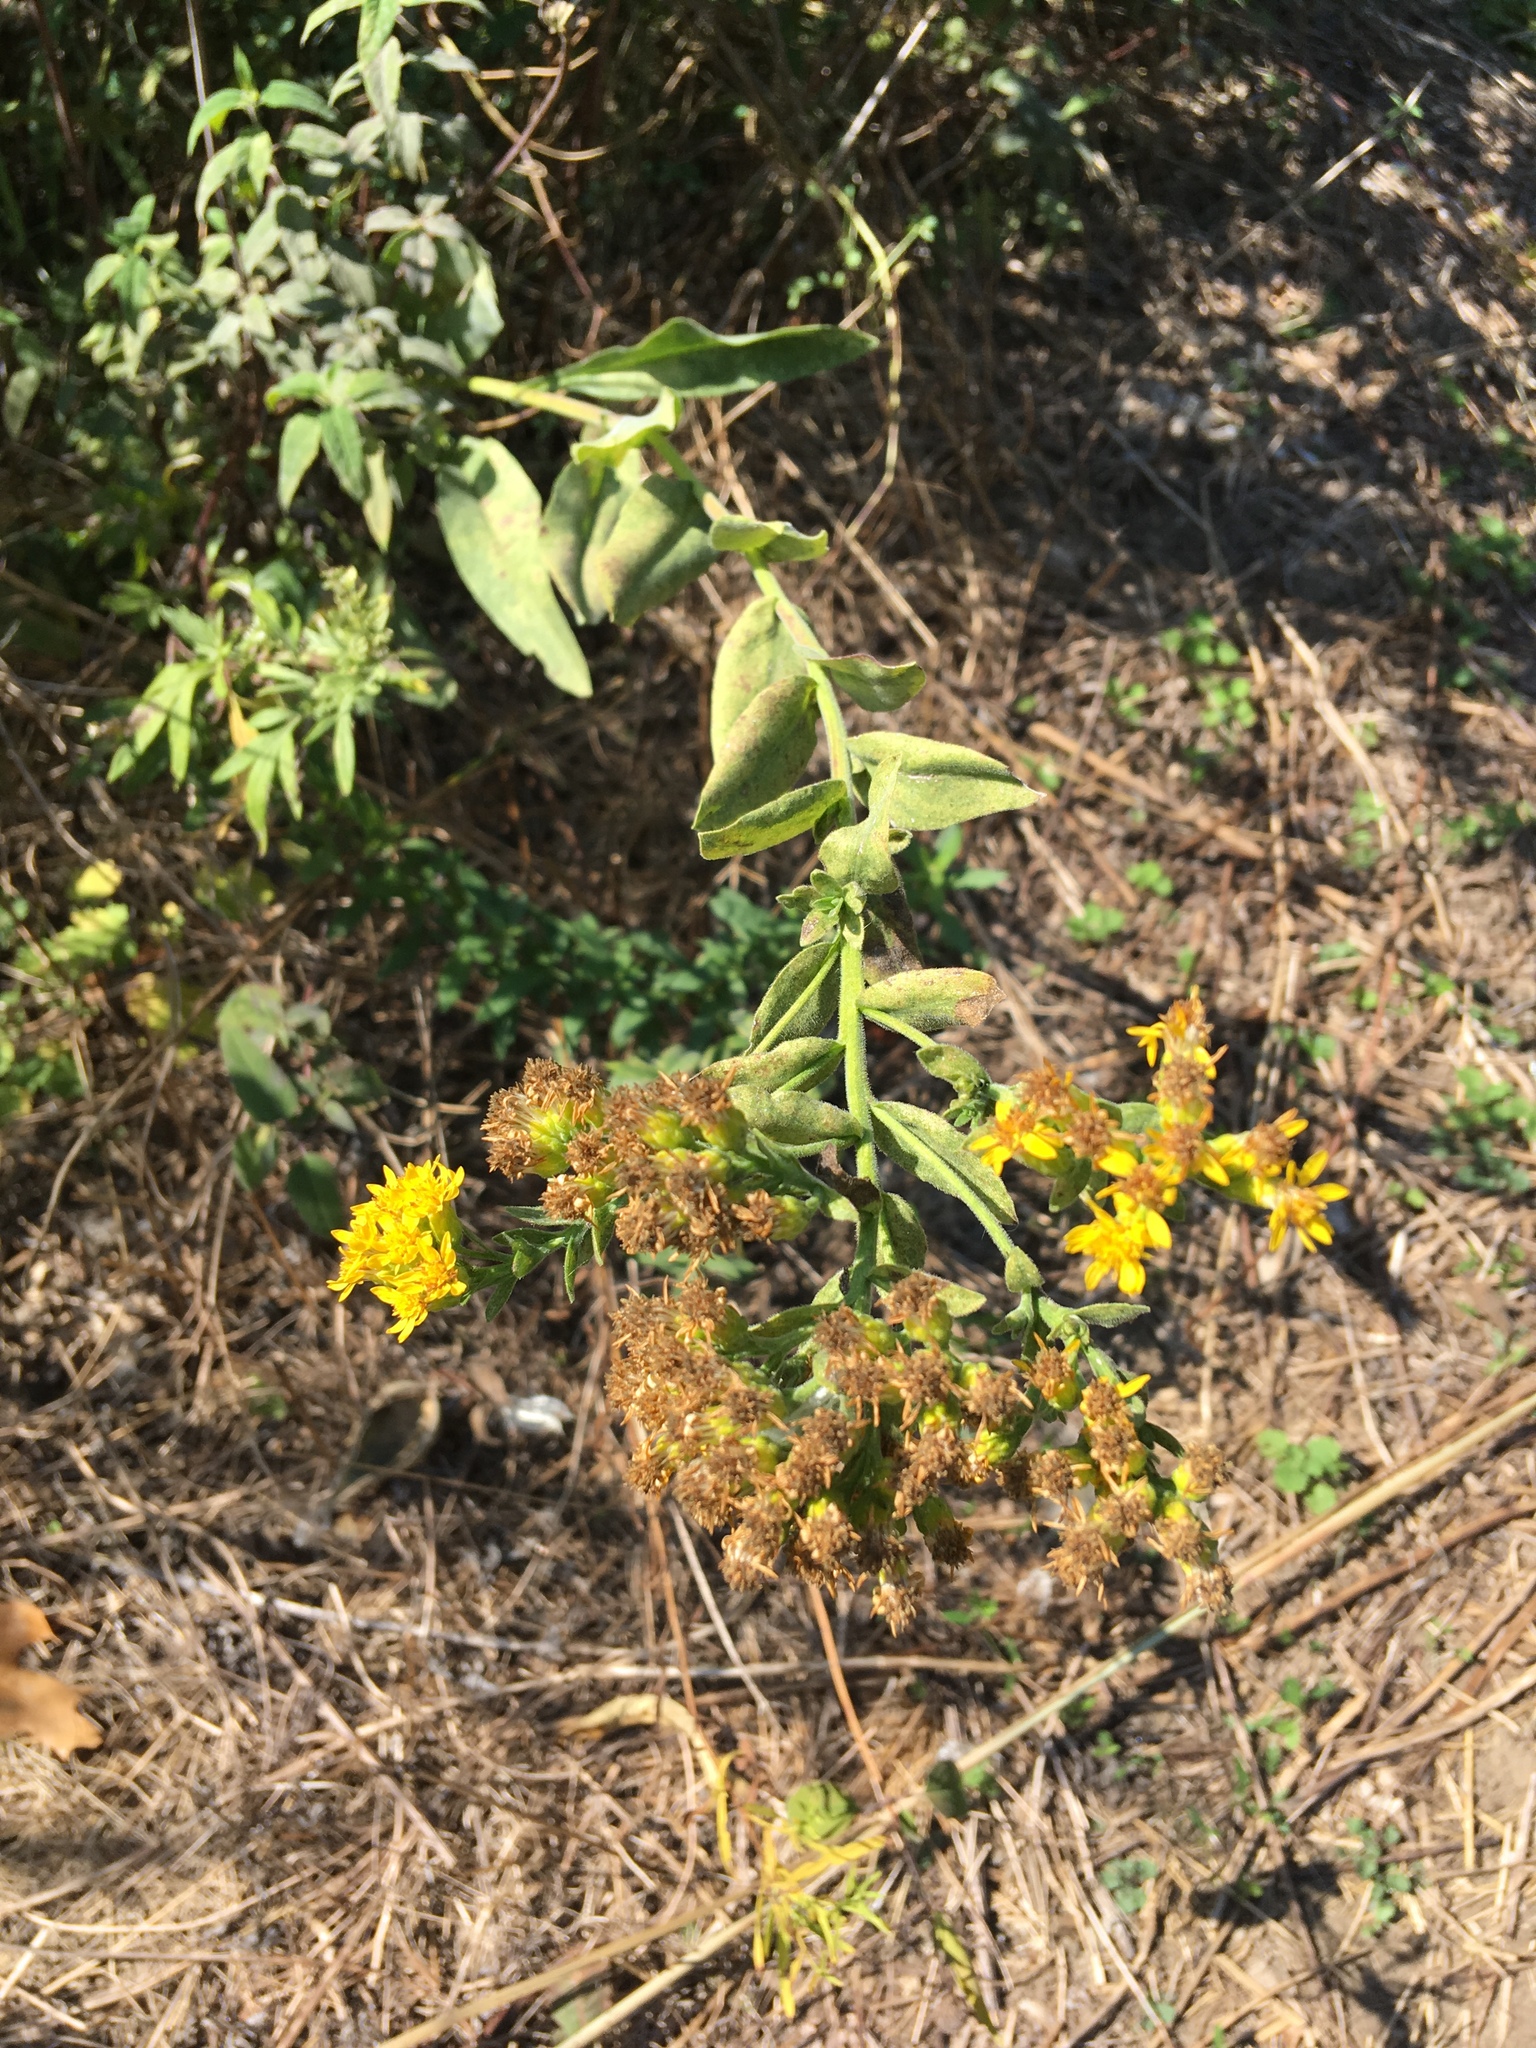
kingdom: Plantae
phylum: Tracheophyta
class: Magnoliopsida
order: Asterales
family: Asteraceae
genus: Solidago
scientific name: Solidago rigida
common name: Rigid goldenrod
